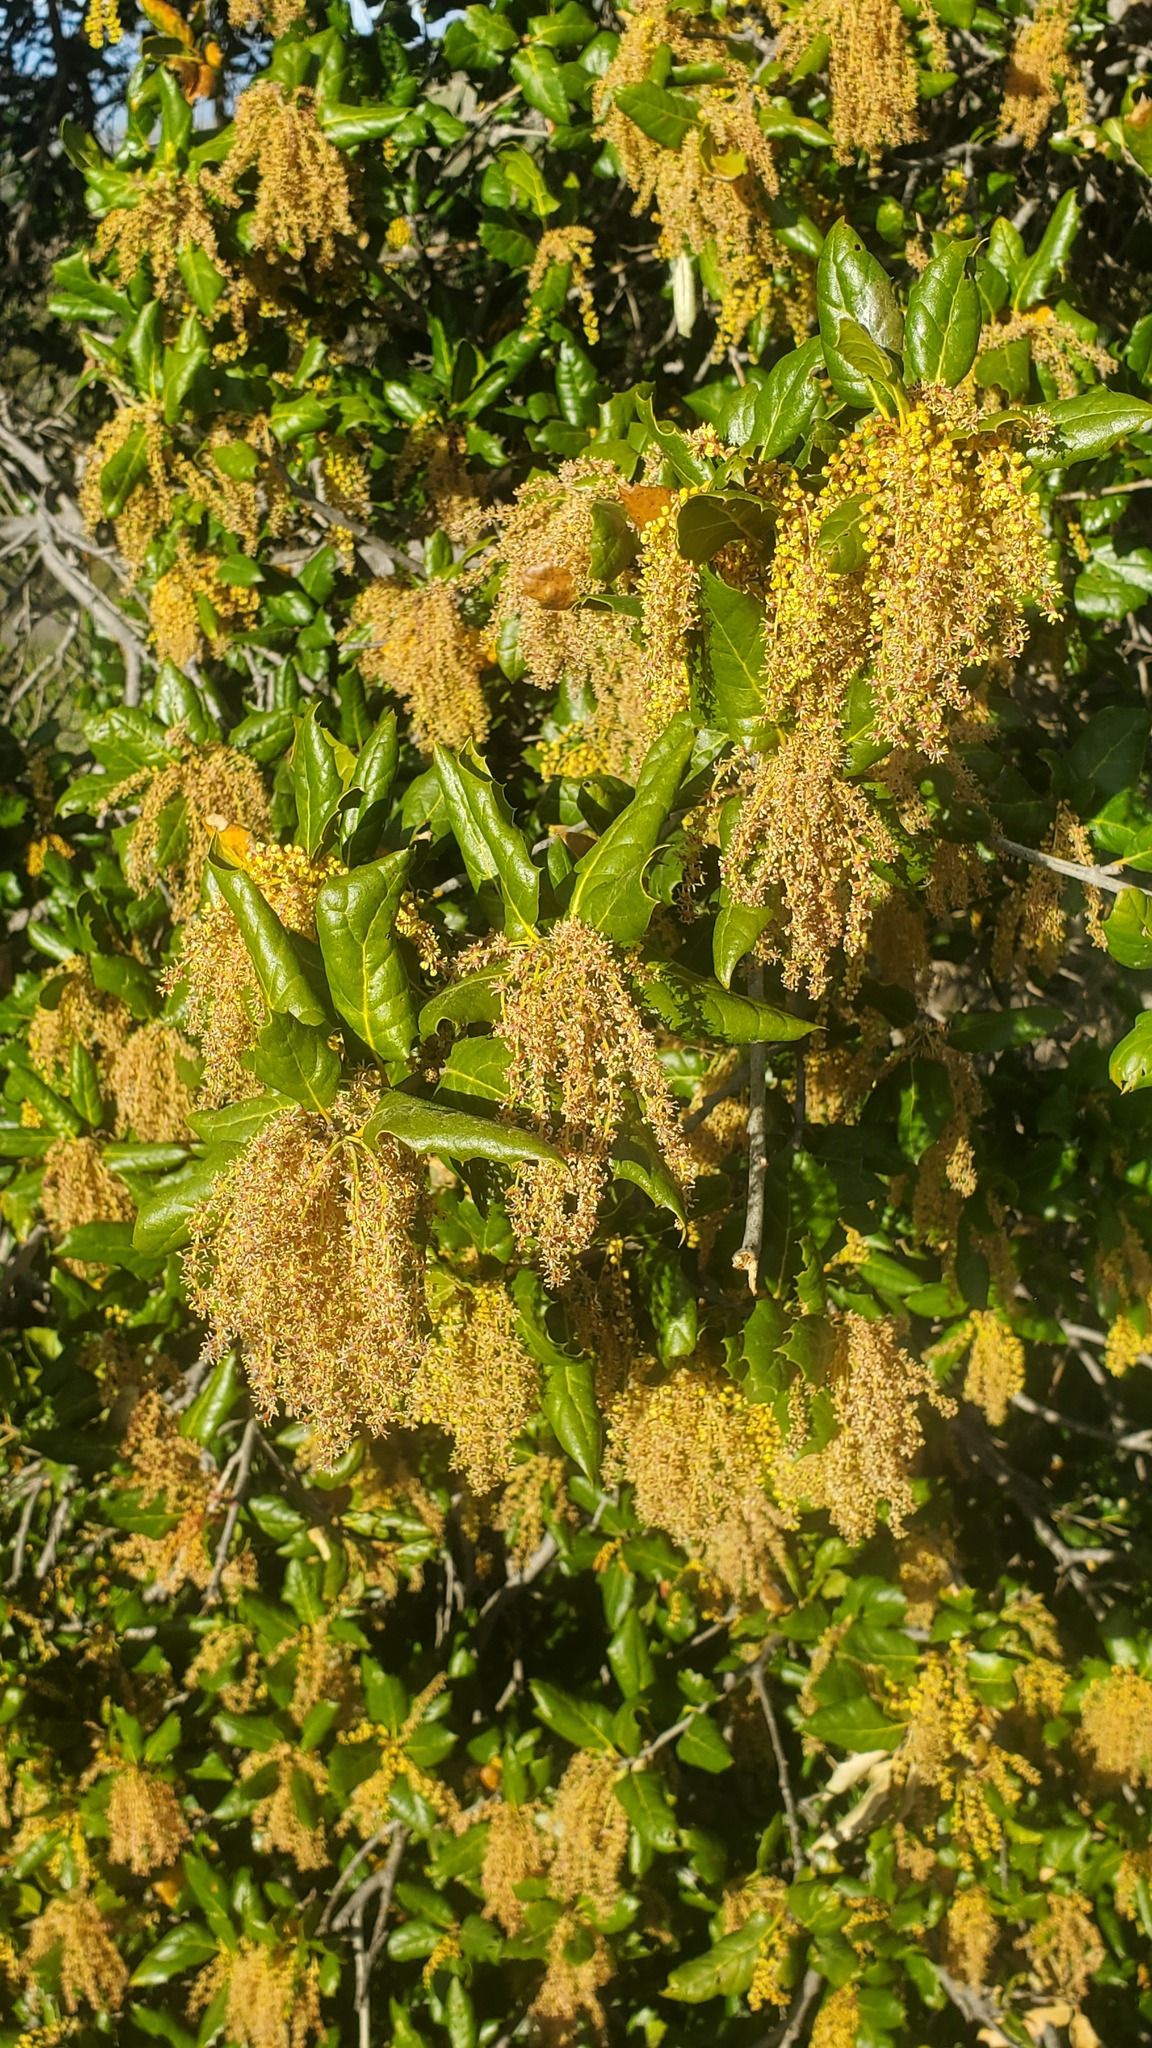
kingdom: Plantae
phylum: Tracheophyta
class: Magnoliopsida
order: Fagales
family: Fagaceae
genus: Quercus
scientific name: Quercus agrifolia
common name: California live oak
